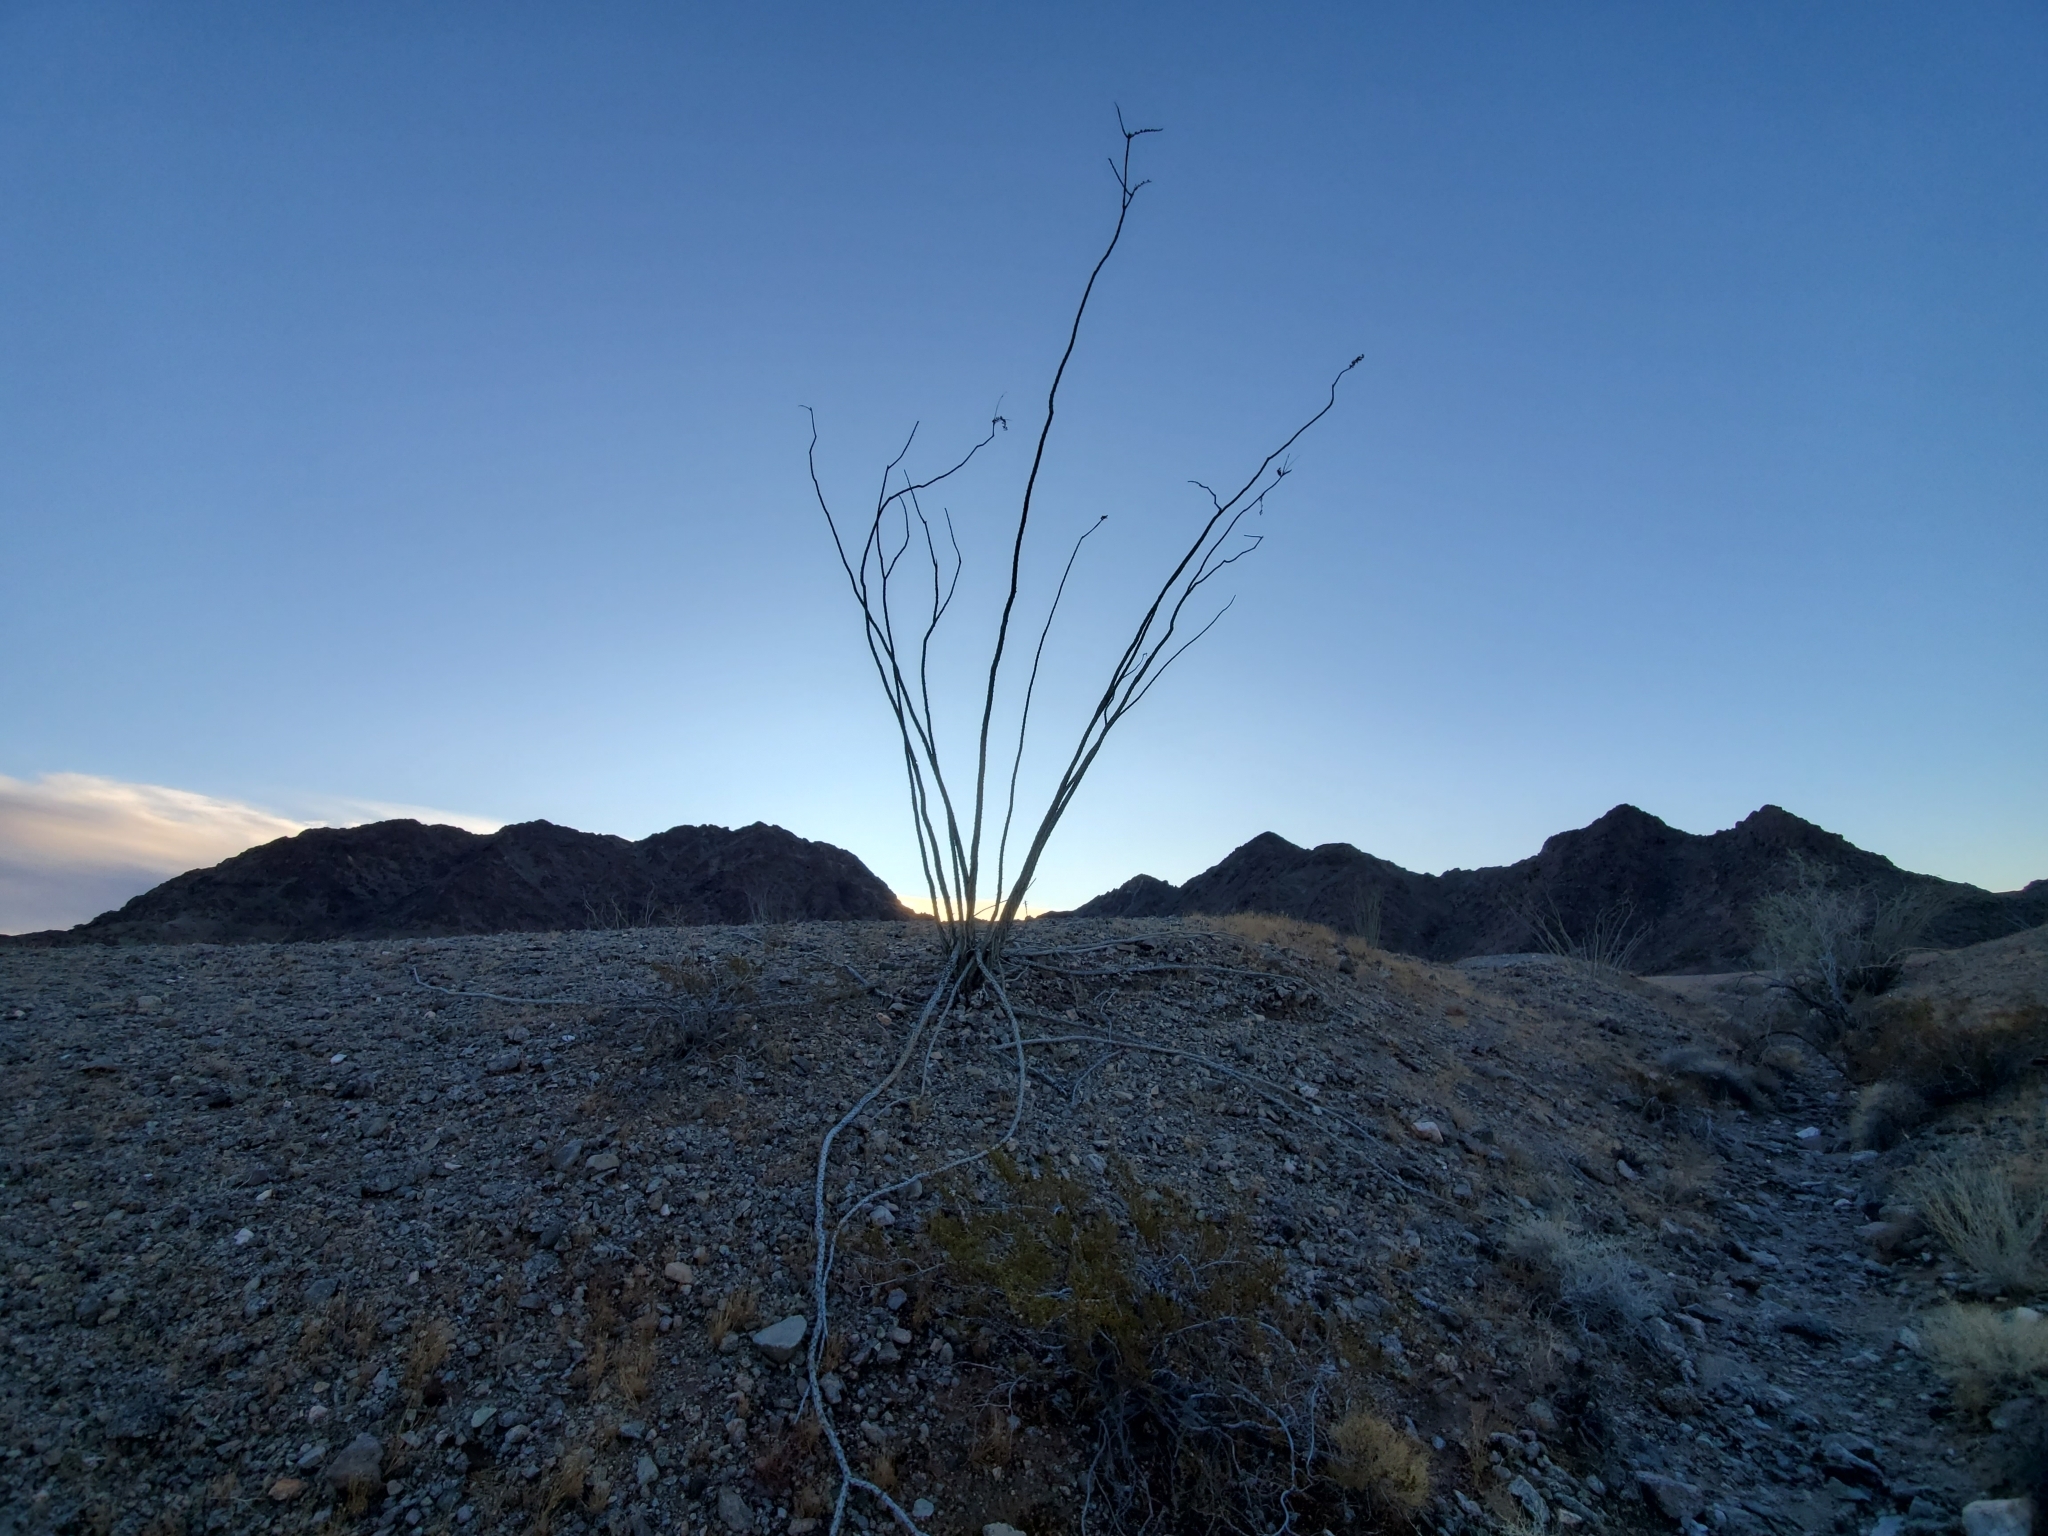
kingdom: Plantae
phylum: Tracheophyta
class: Magnoliopsida
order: Ericales
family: Fouquieriaceae
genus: Fouquieria
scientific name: Fouquieria splendens
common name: Vine-cactus
